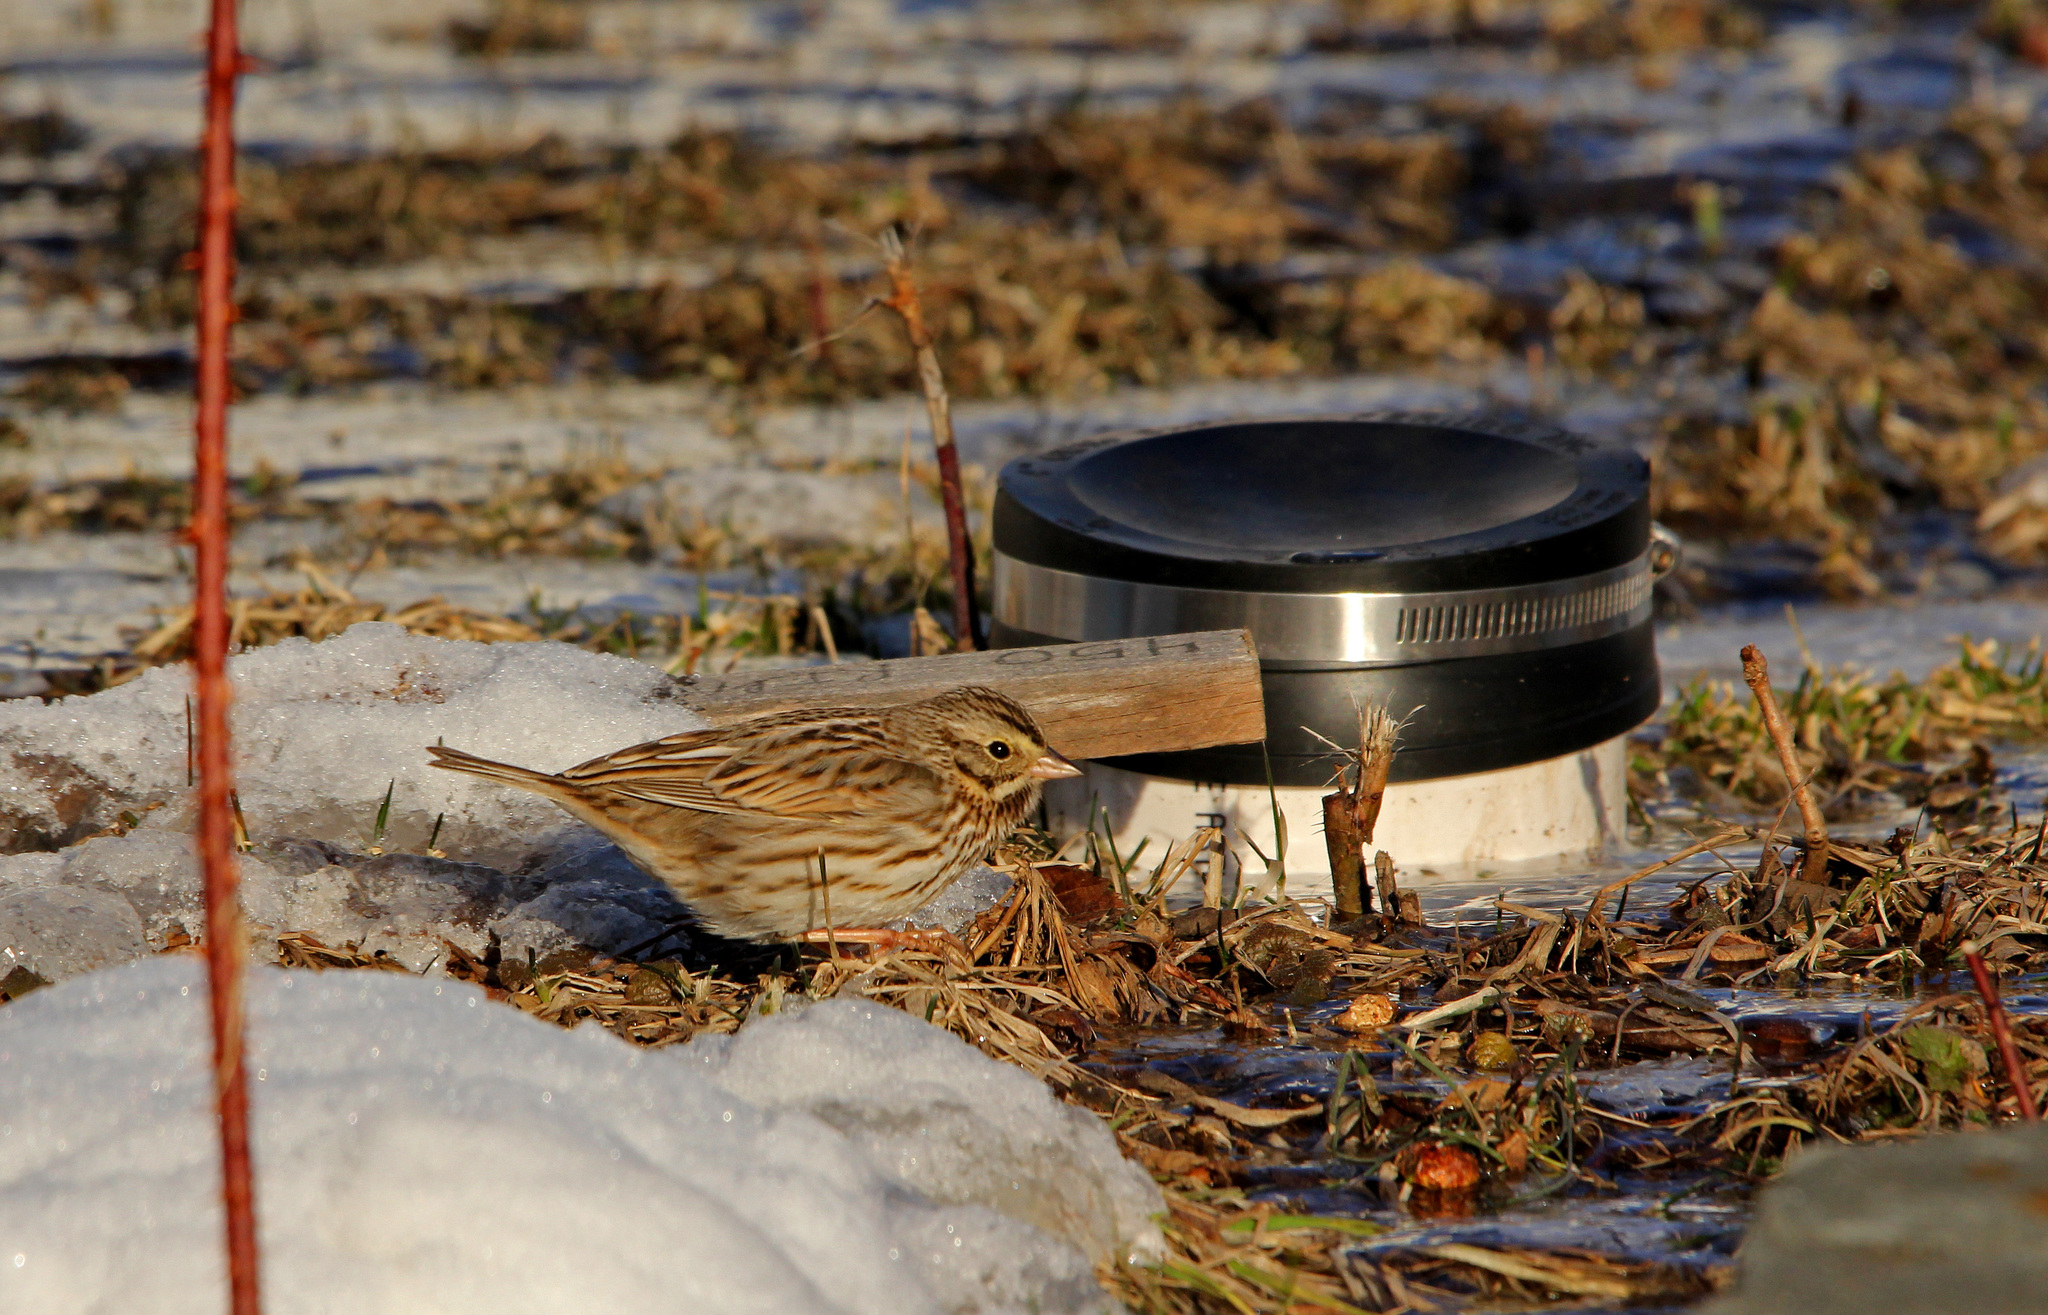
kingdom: Animalia
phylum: Chordata
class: Aves
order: Passeriformes
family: Passerellidae
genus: Passerculus
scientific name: Passerculus sandwichensis
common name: Savannah sparrow
